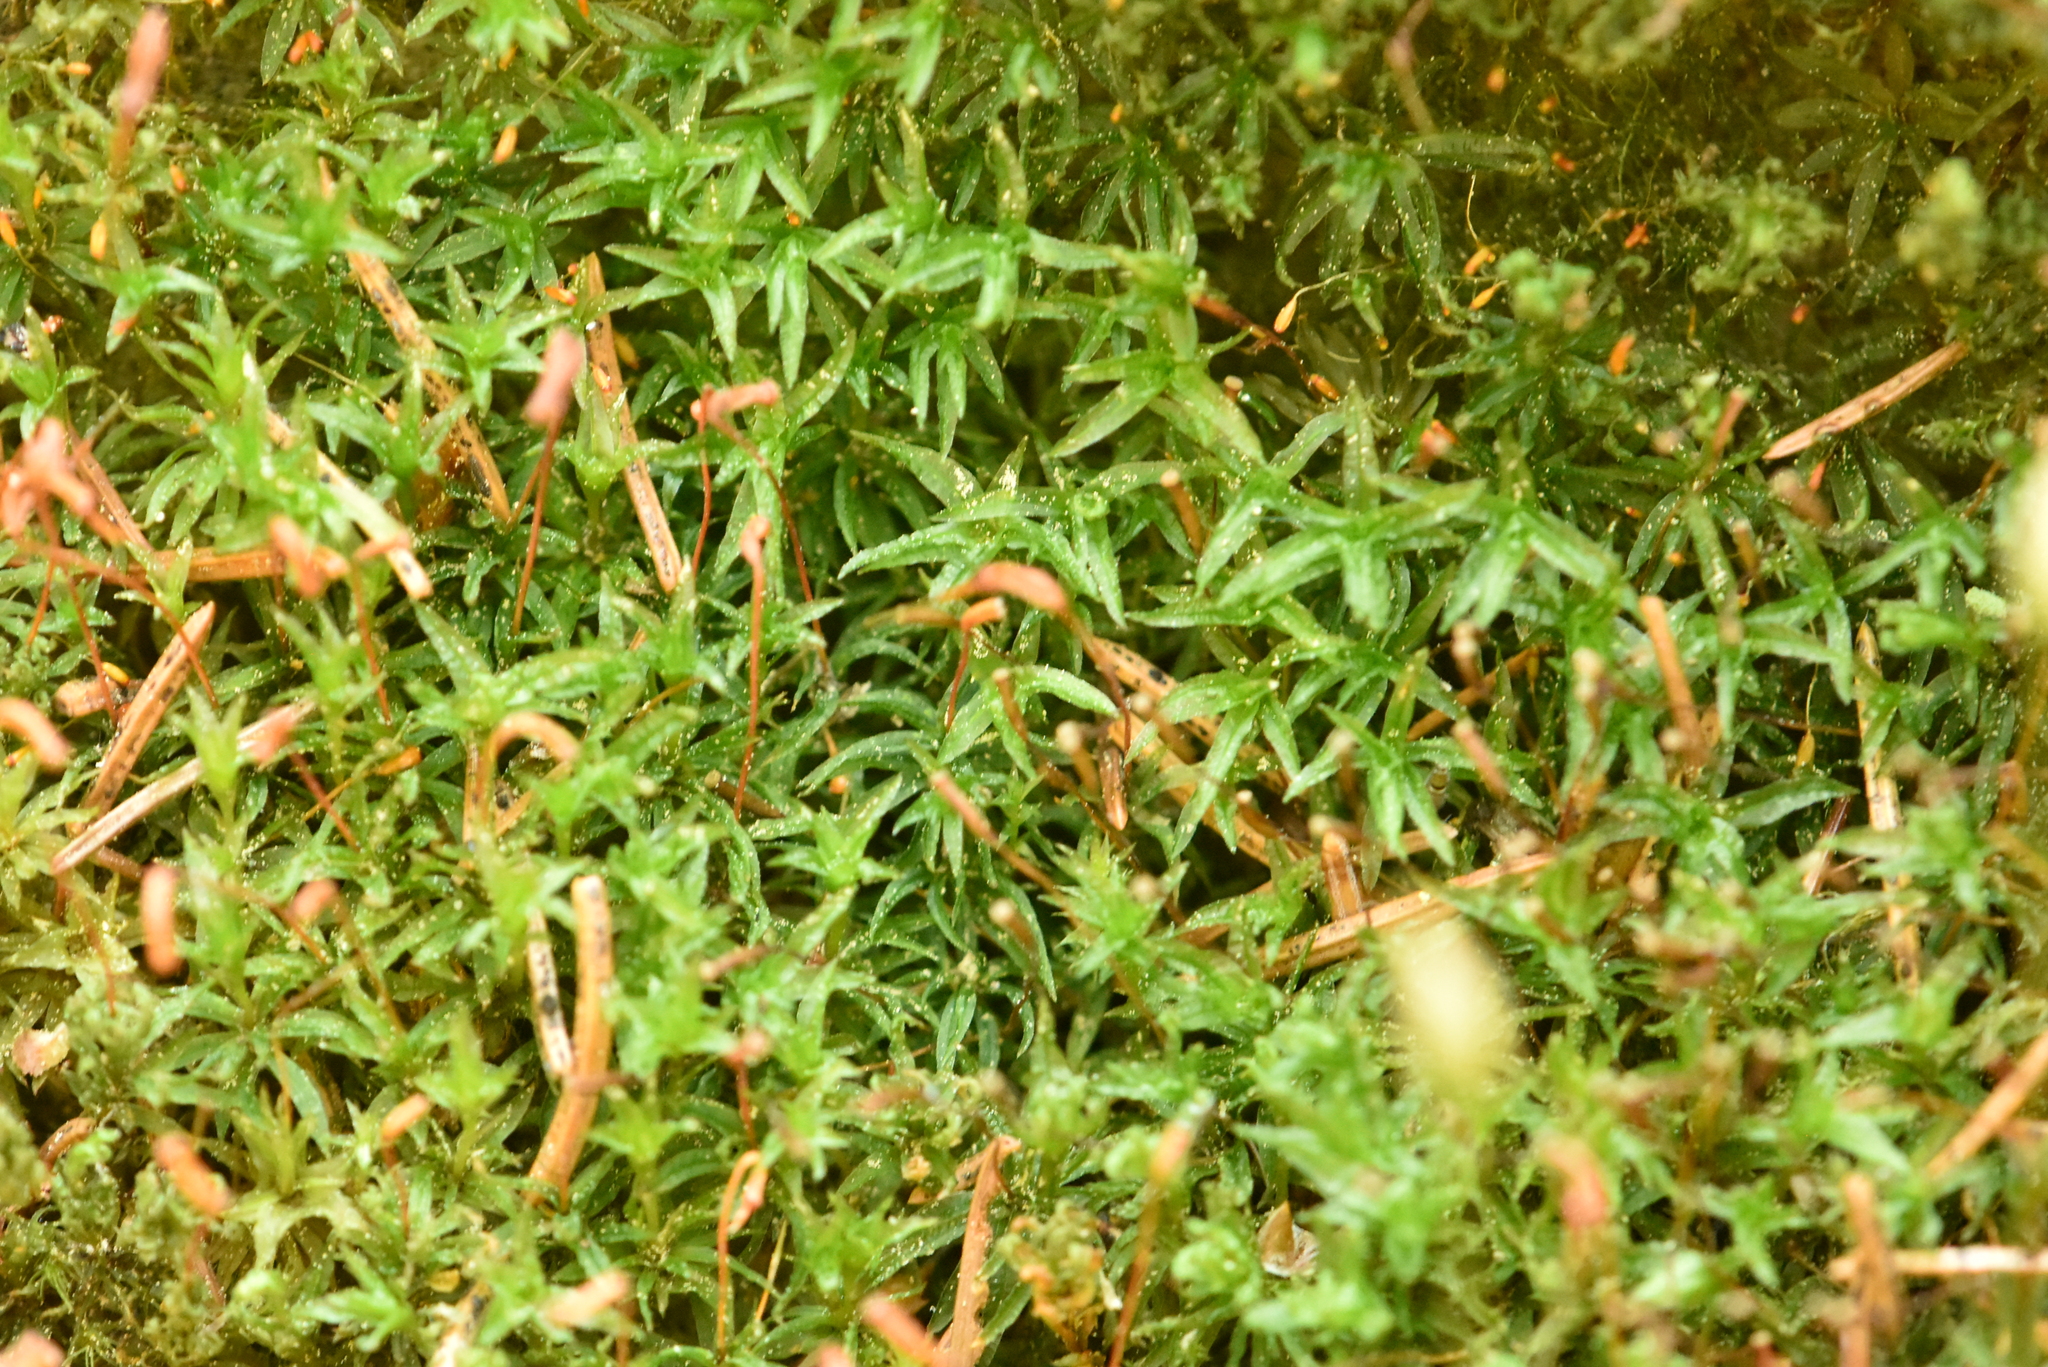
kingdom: Plantae
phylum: Bryophyta
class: Polytrichopsida
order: Polytrichales
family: Polytrichaceae
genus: Atrichum
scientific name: Atrichum undulatum
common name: Common smoothcap
